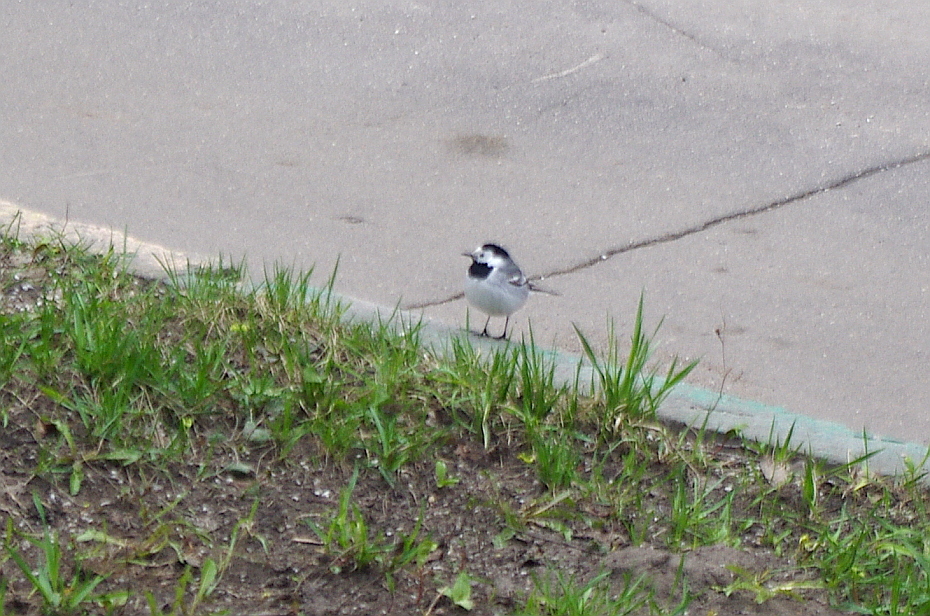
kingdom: Animalia
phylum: Chordata
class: Aves
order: Passeriformes
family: Motacillidae
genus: Motacilla
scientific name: Motacilla alba
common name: White wagtail
